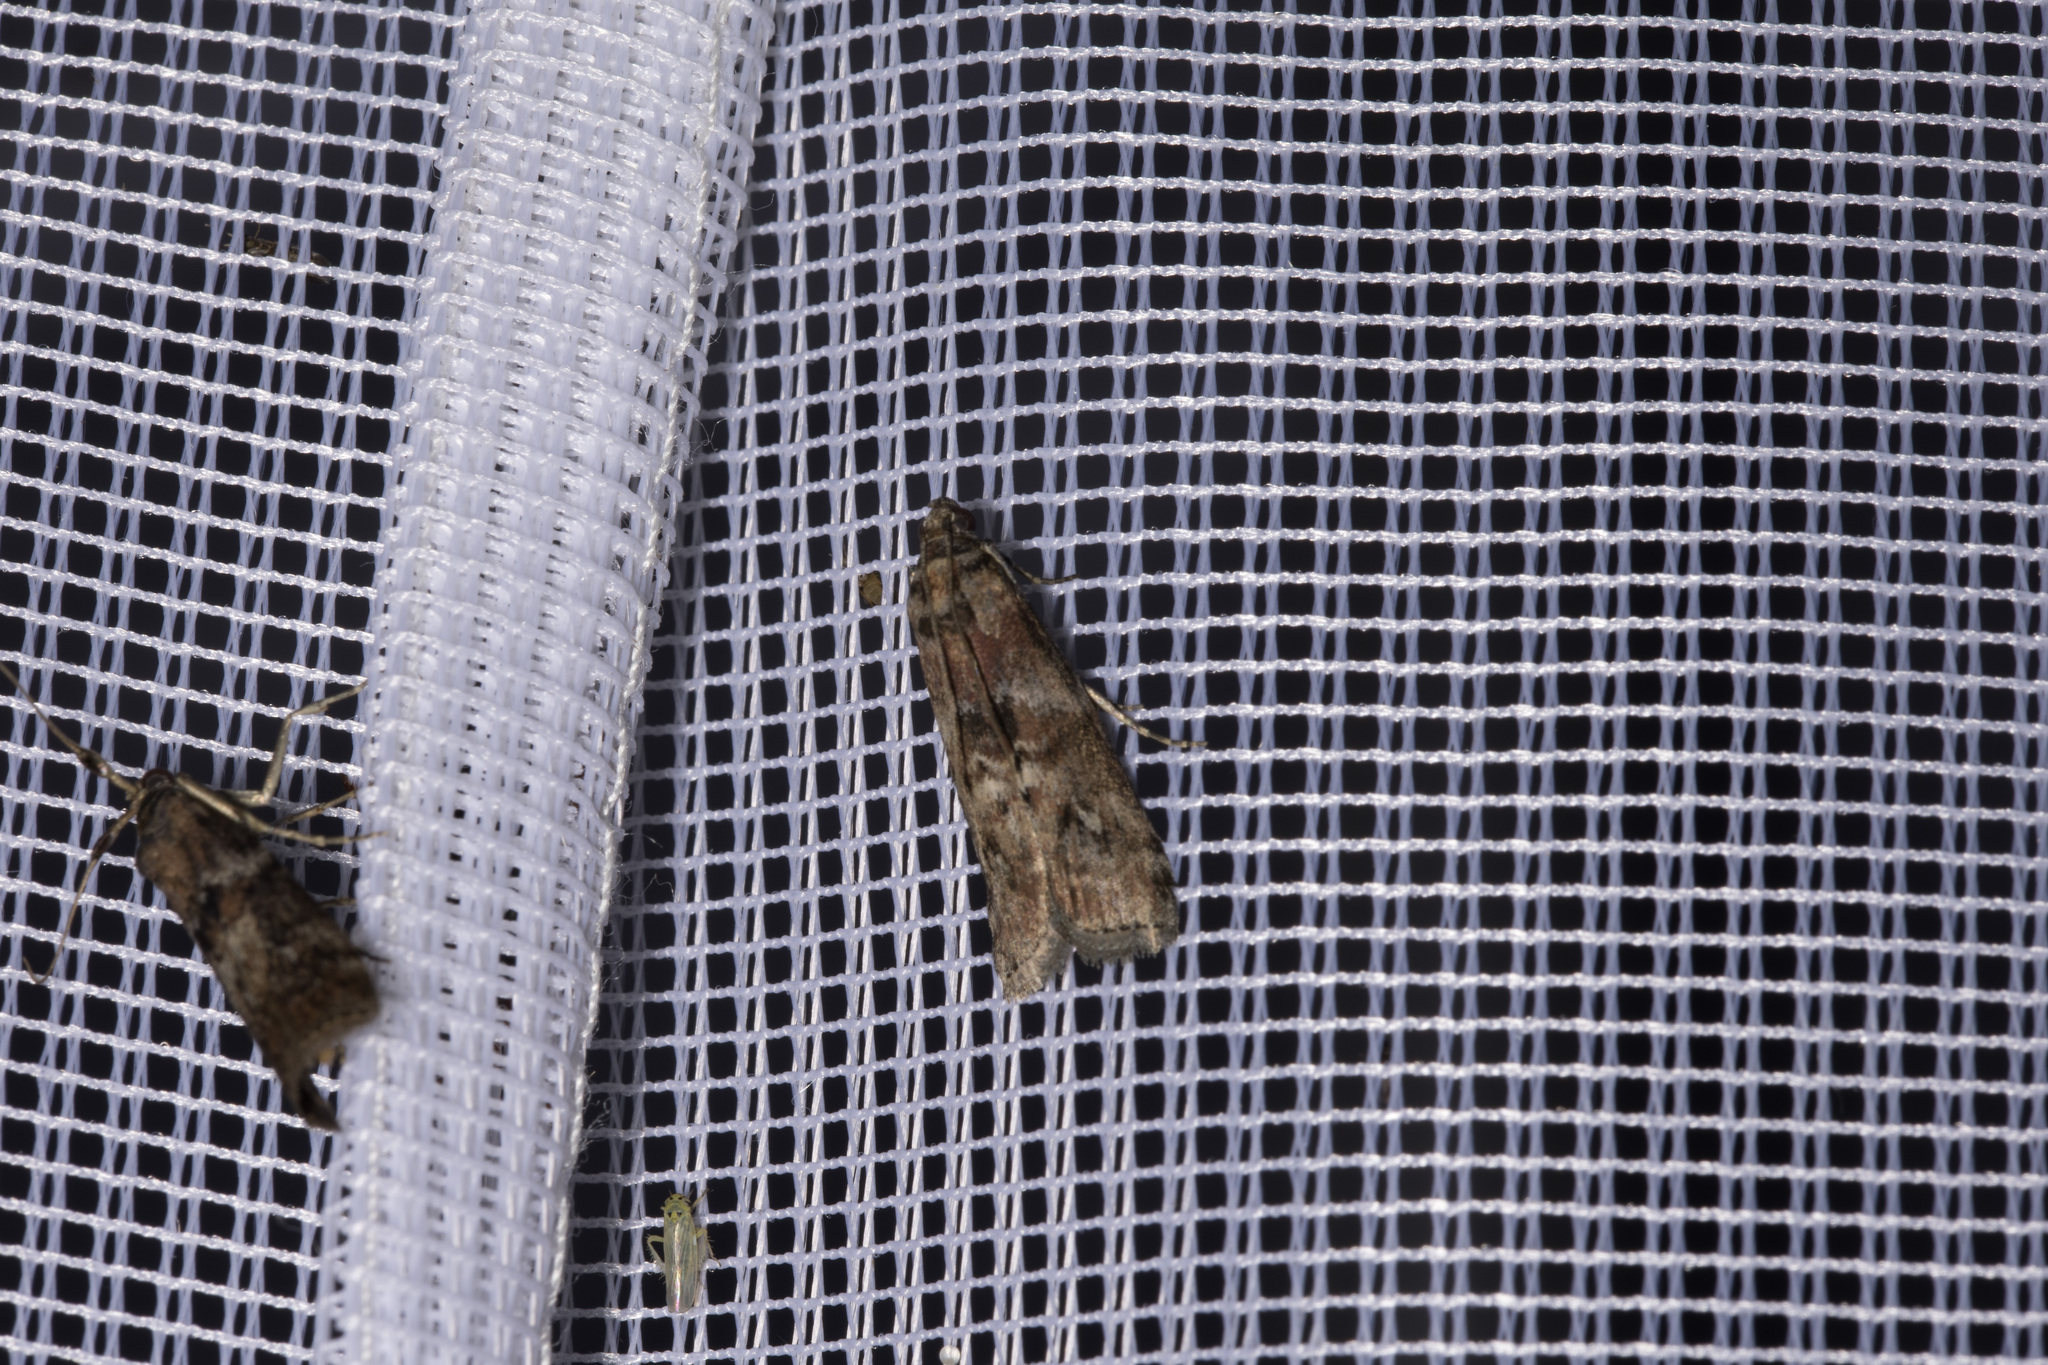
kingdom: Animalia
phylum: Arthropoda
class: Insecta
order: Lepidoptera
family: Pyralidae
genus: Phycita
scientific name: Phycita roborella
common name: Dotted oak knot-horn
